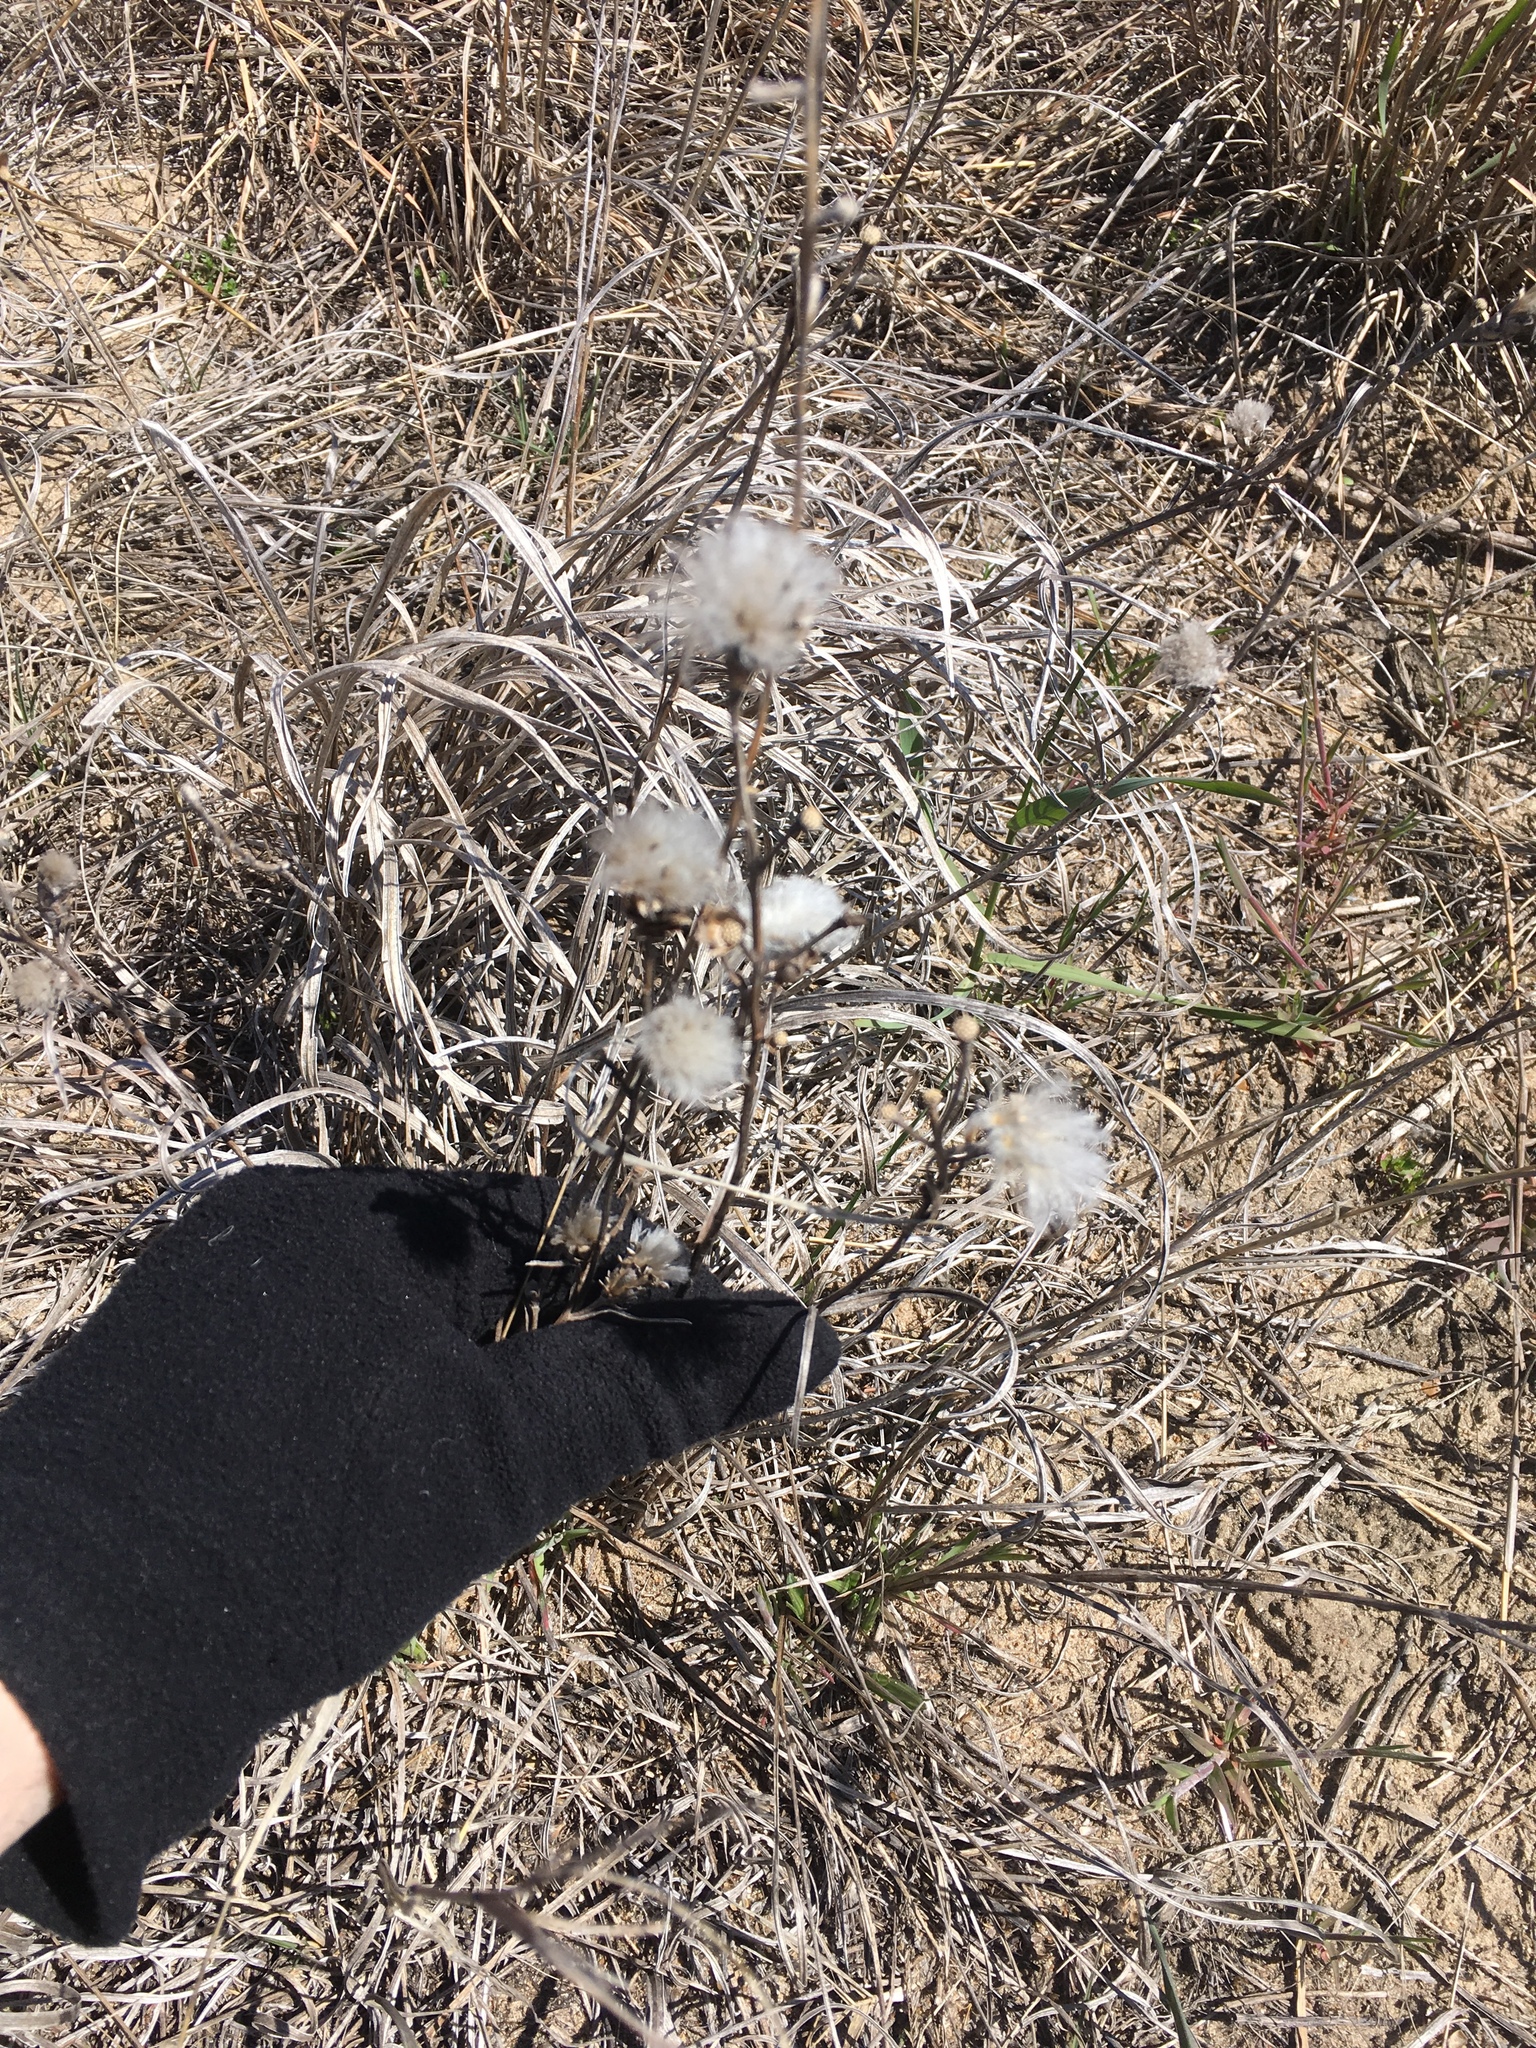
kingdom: Plantae
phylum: Tracheophyta
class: Magnoliopsida
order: Asterales
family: Asteraceae
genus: Liatris
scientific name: Liatris cylindracea
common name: Few-head blazingstar
